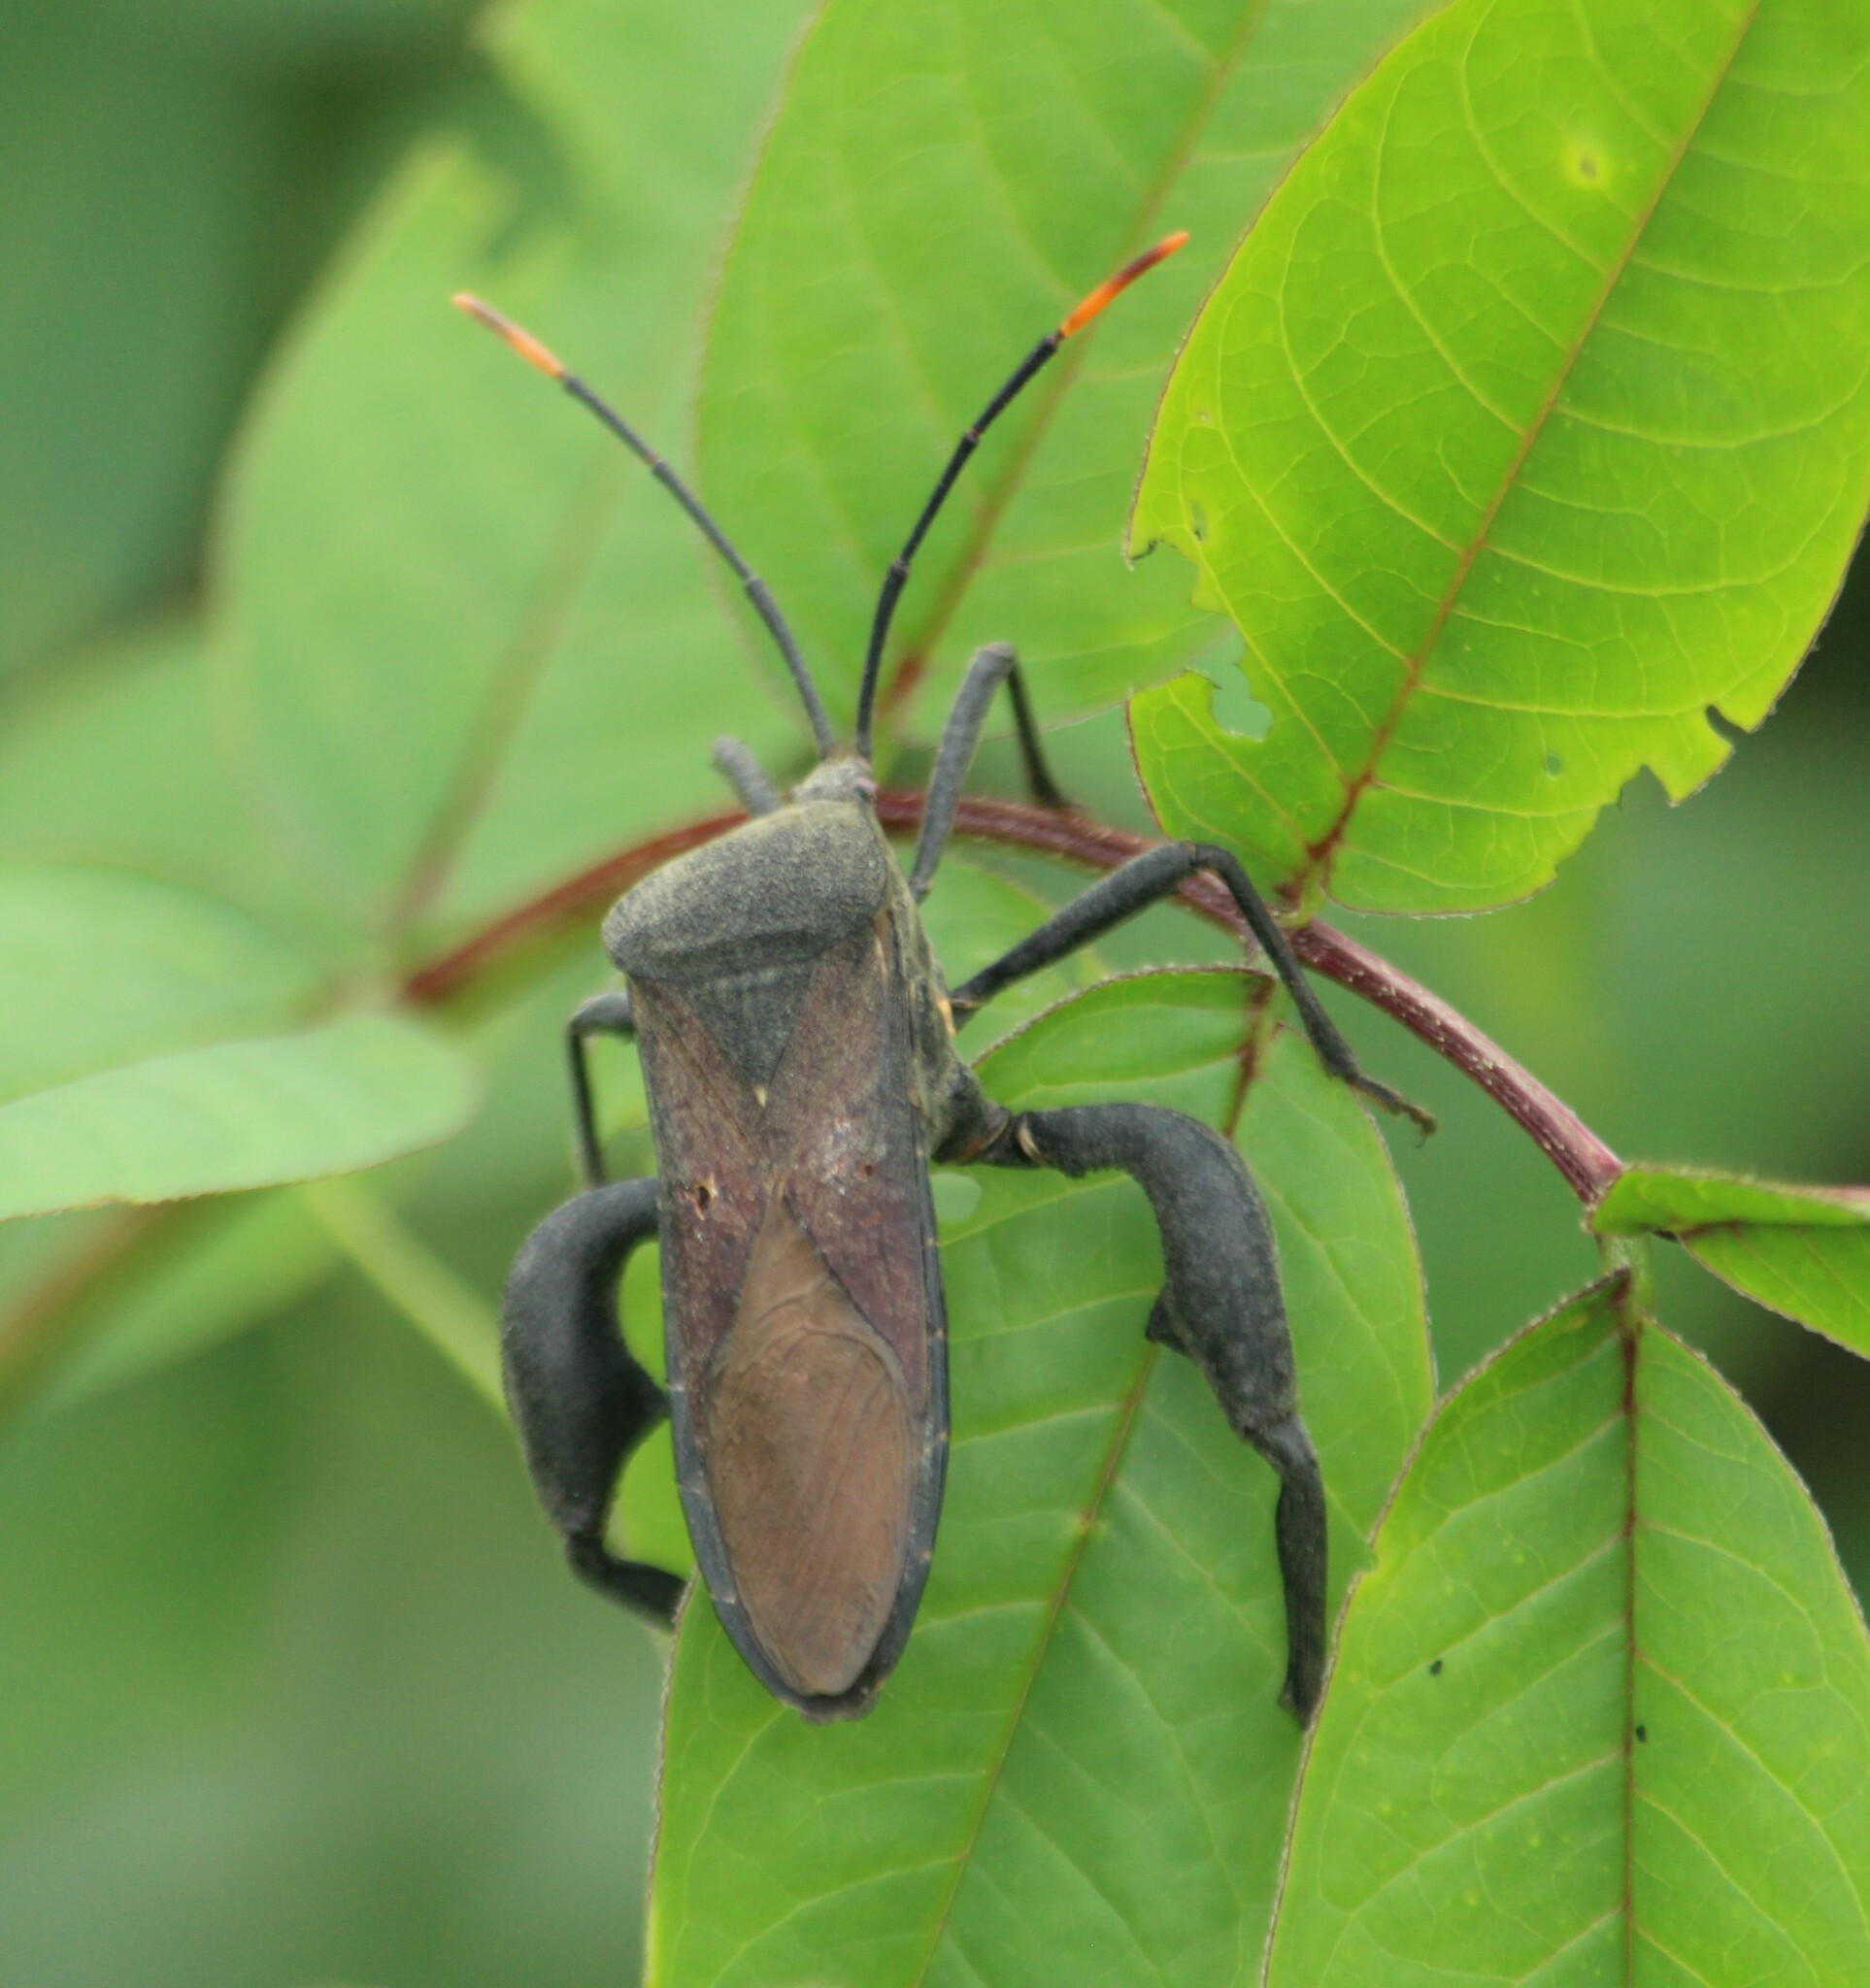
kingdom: Animalia
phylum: Arthropoda
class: Insecta
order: Hemiptera
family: Coreidae
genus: Anoplocnemis
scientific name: Anoplocnemis phasianus
